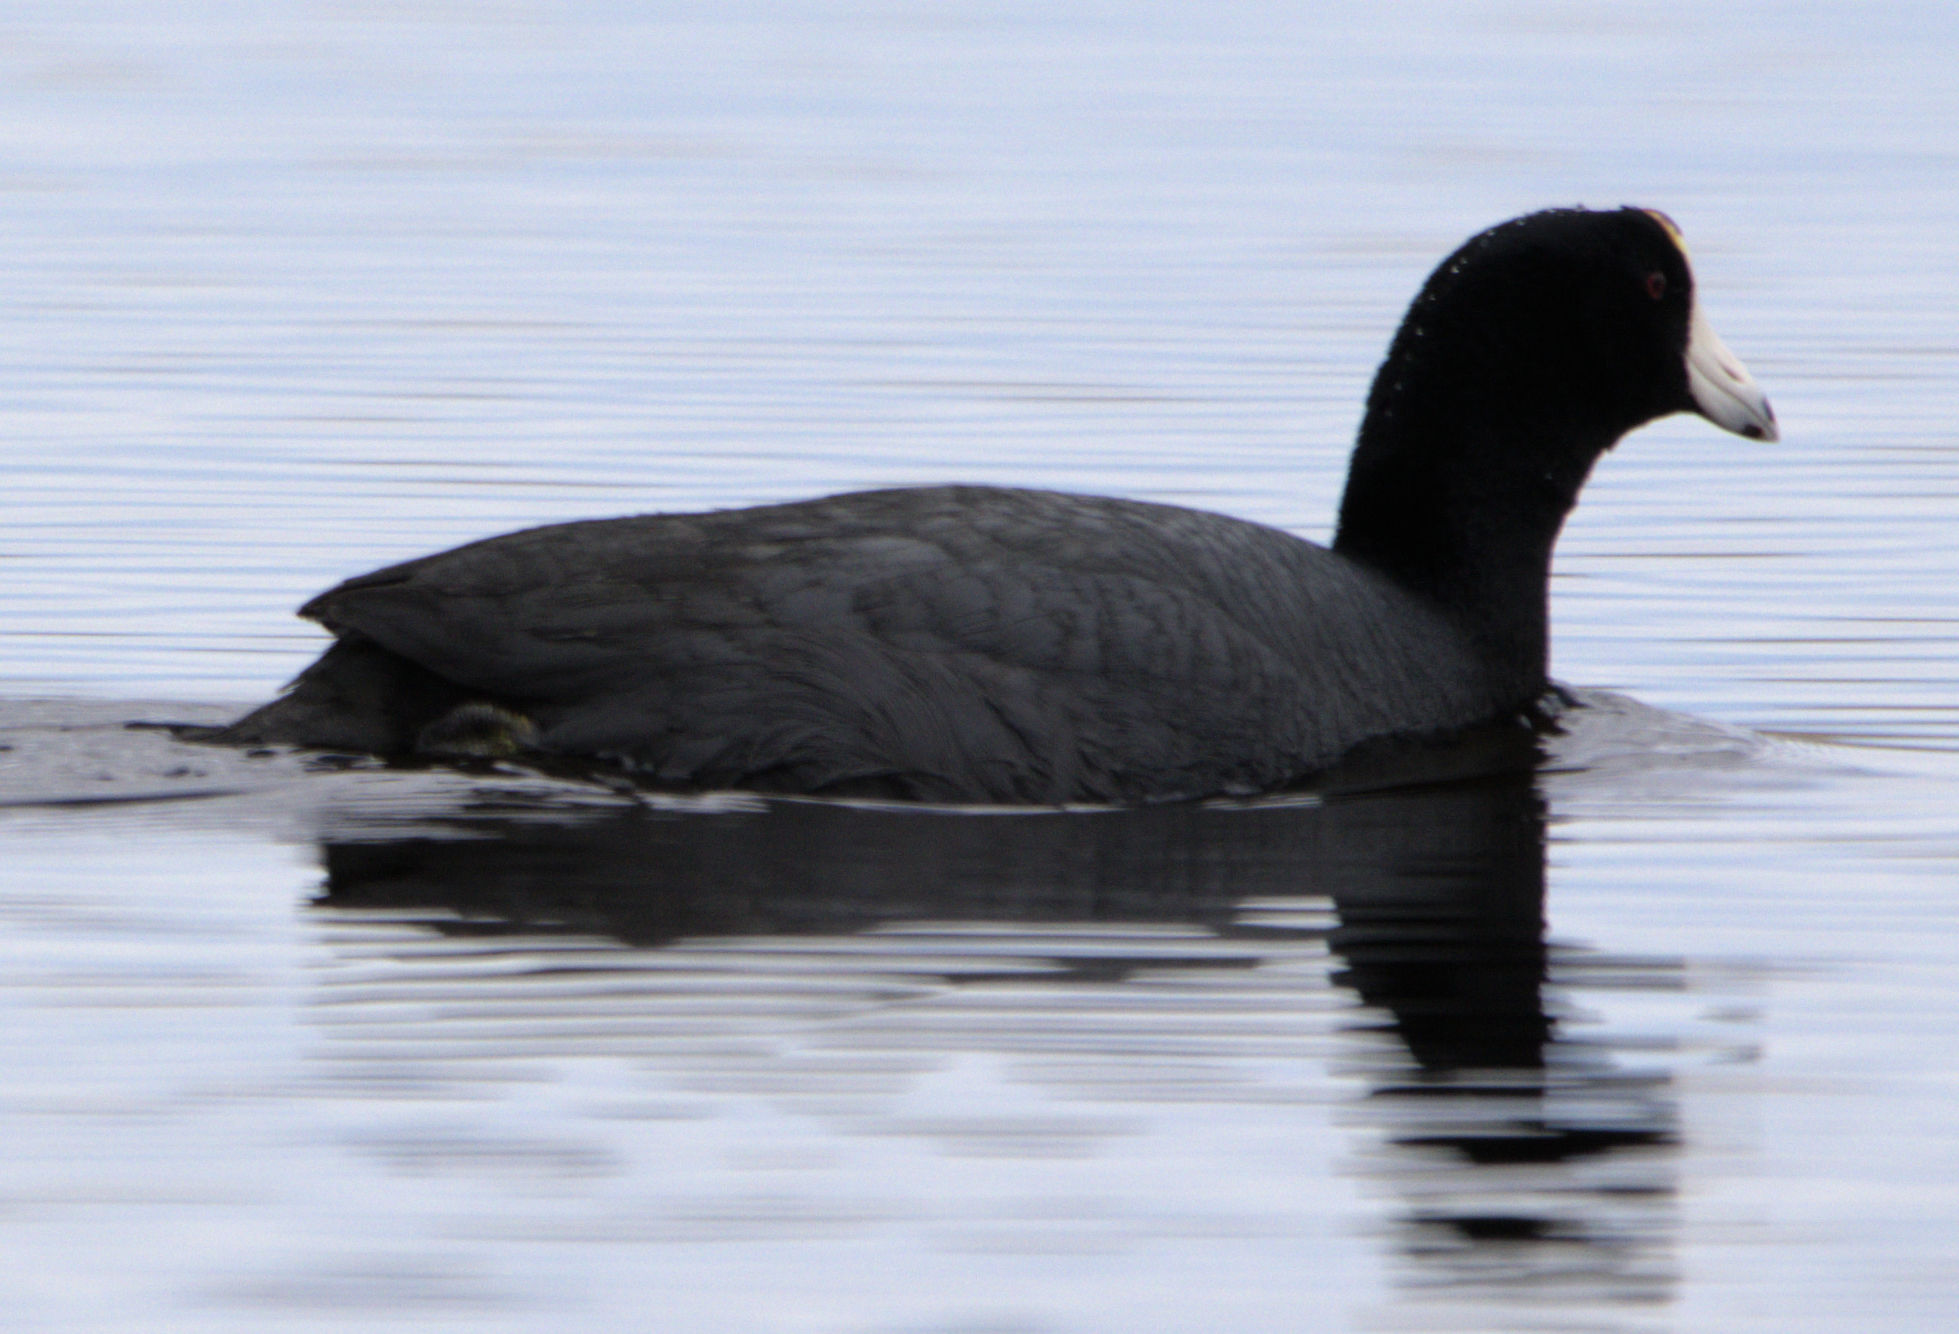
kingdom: Animalia
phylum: Chordata
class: Aves
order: Gruiformes
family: Rallidae
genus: Fulica
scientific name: Fulica americana
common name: American coot
